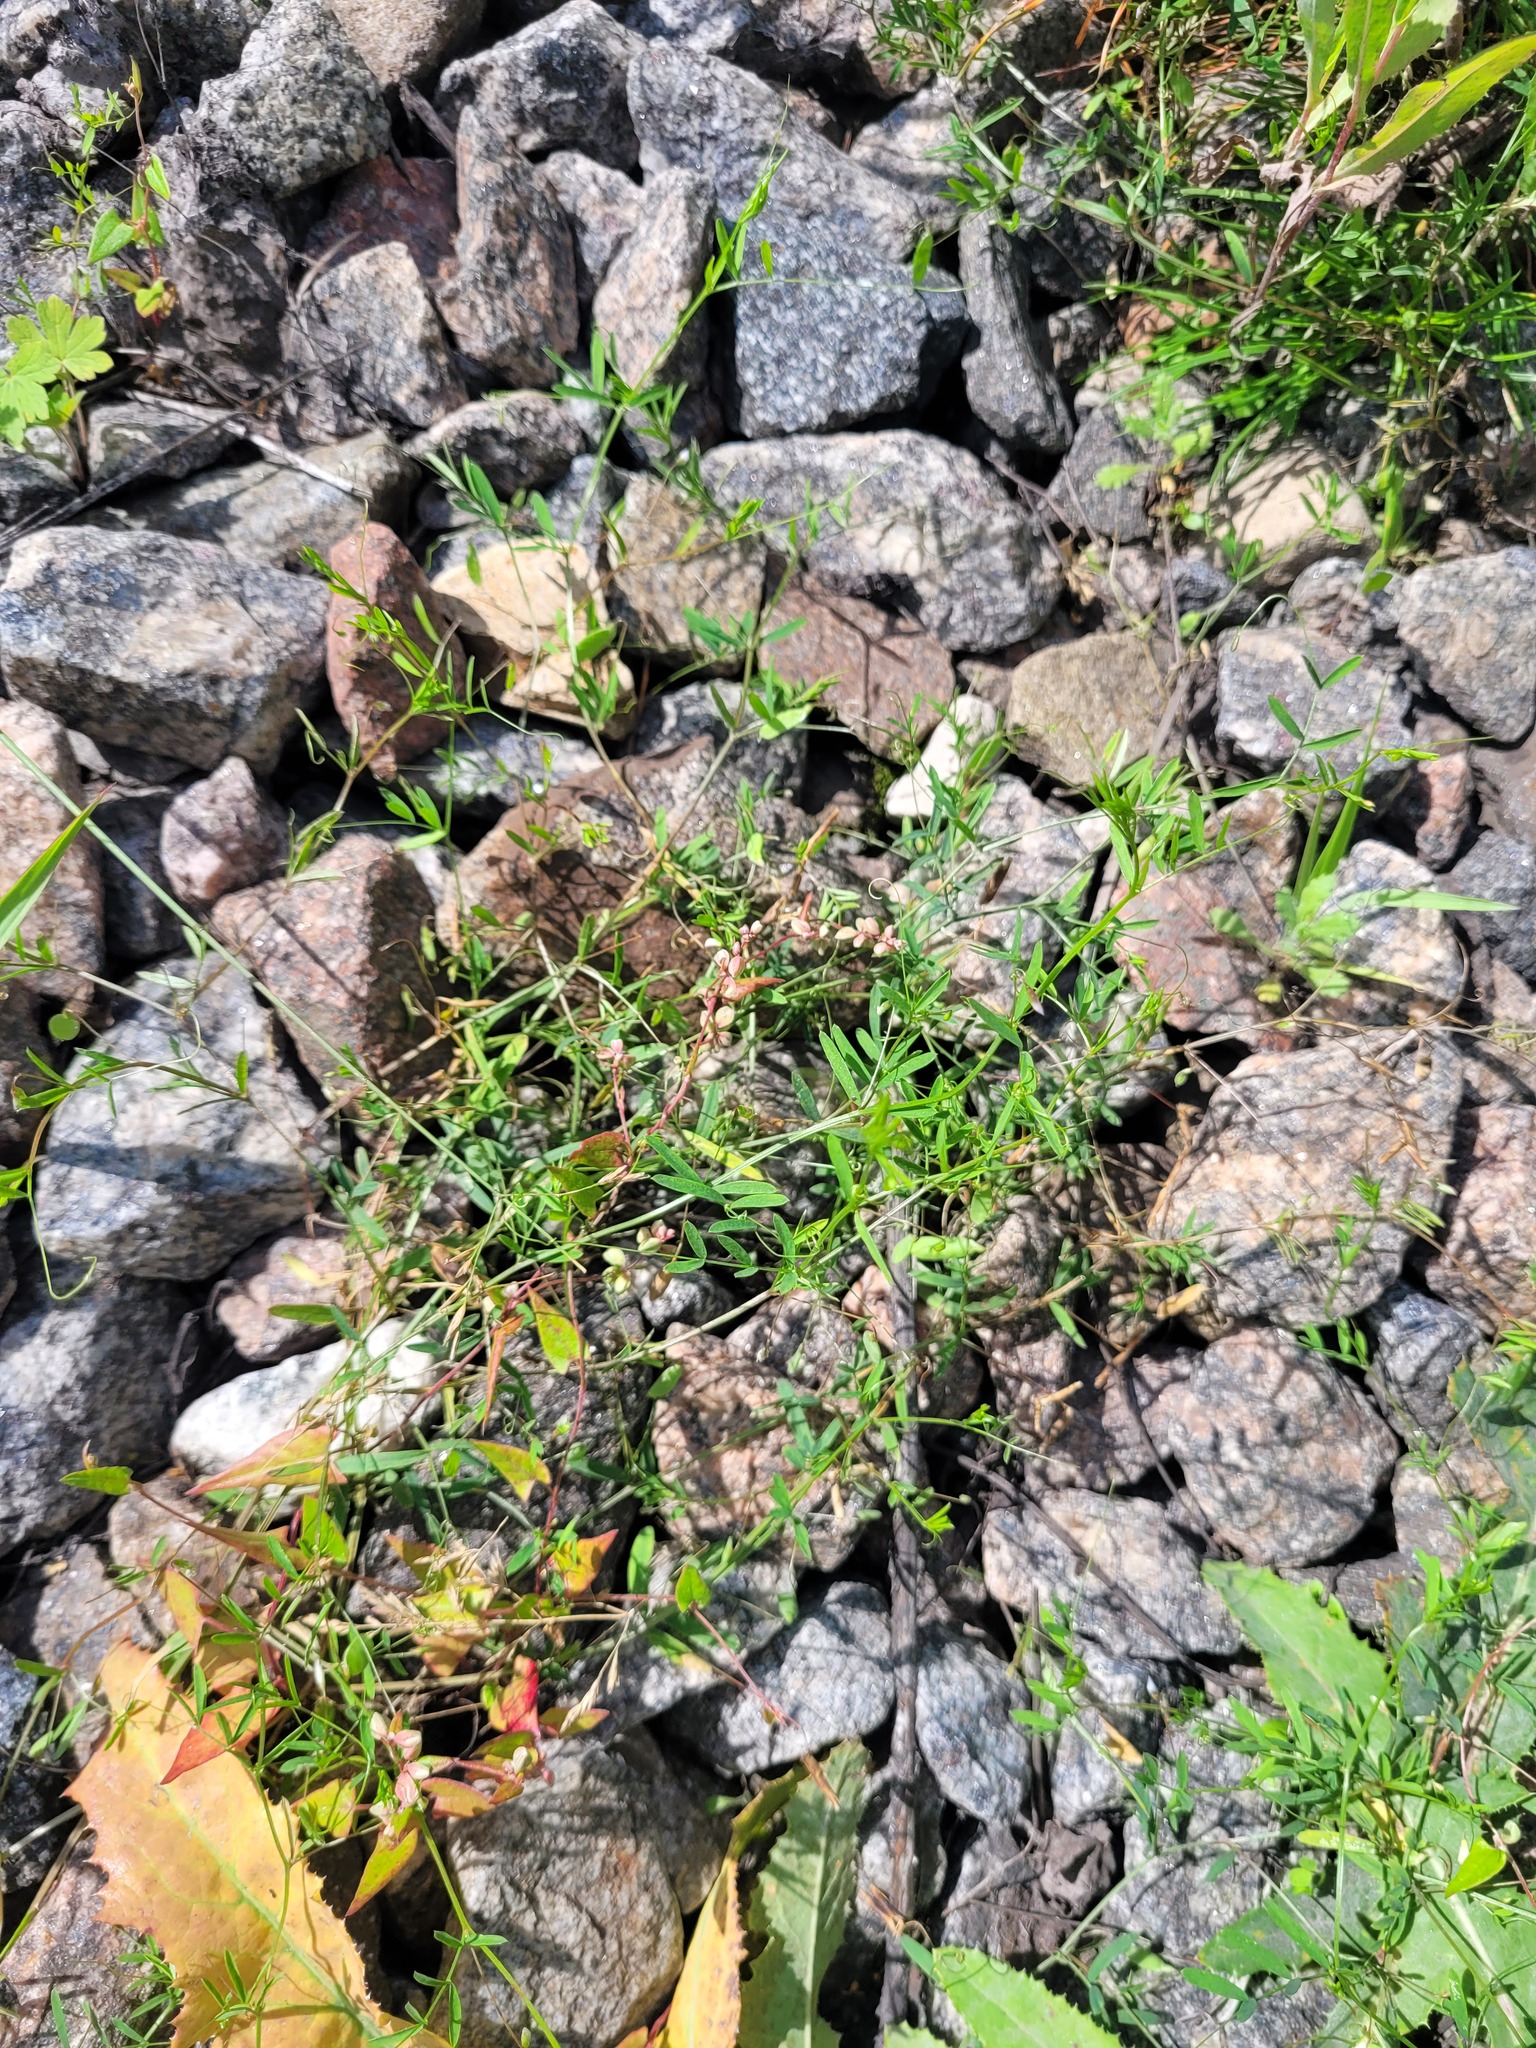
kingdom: Plantae
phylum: Tracheophyta
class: Magnoliopsida
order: Caryophyllales
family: Polygonaceae
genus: Fallopia
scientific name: Fallopia convolvulus
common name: Black bindweed
